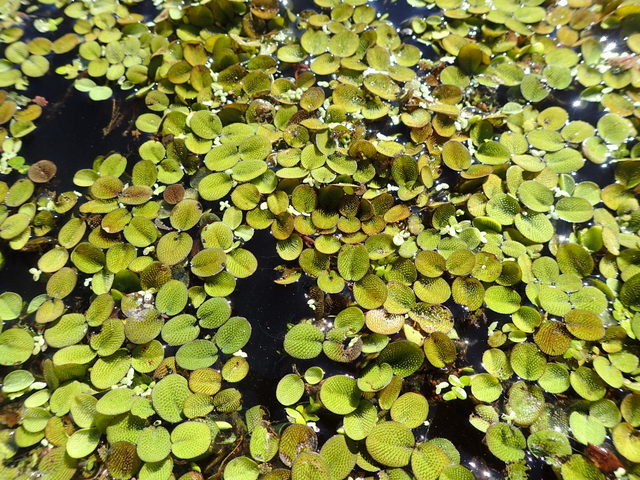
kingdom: Plantae
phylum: Tracheophyta
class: Polypodiopsida
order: Salviniales
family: Salviniaceae
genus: Salvinia
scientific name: Salvinia minima
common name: Water spangles
